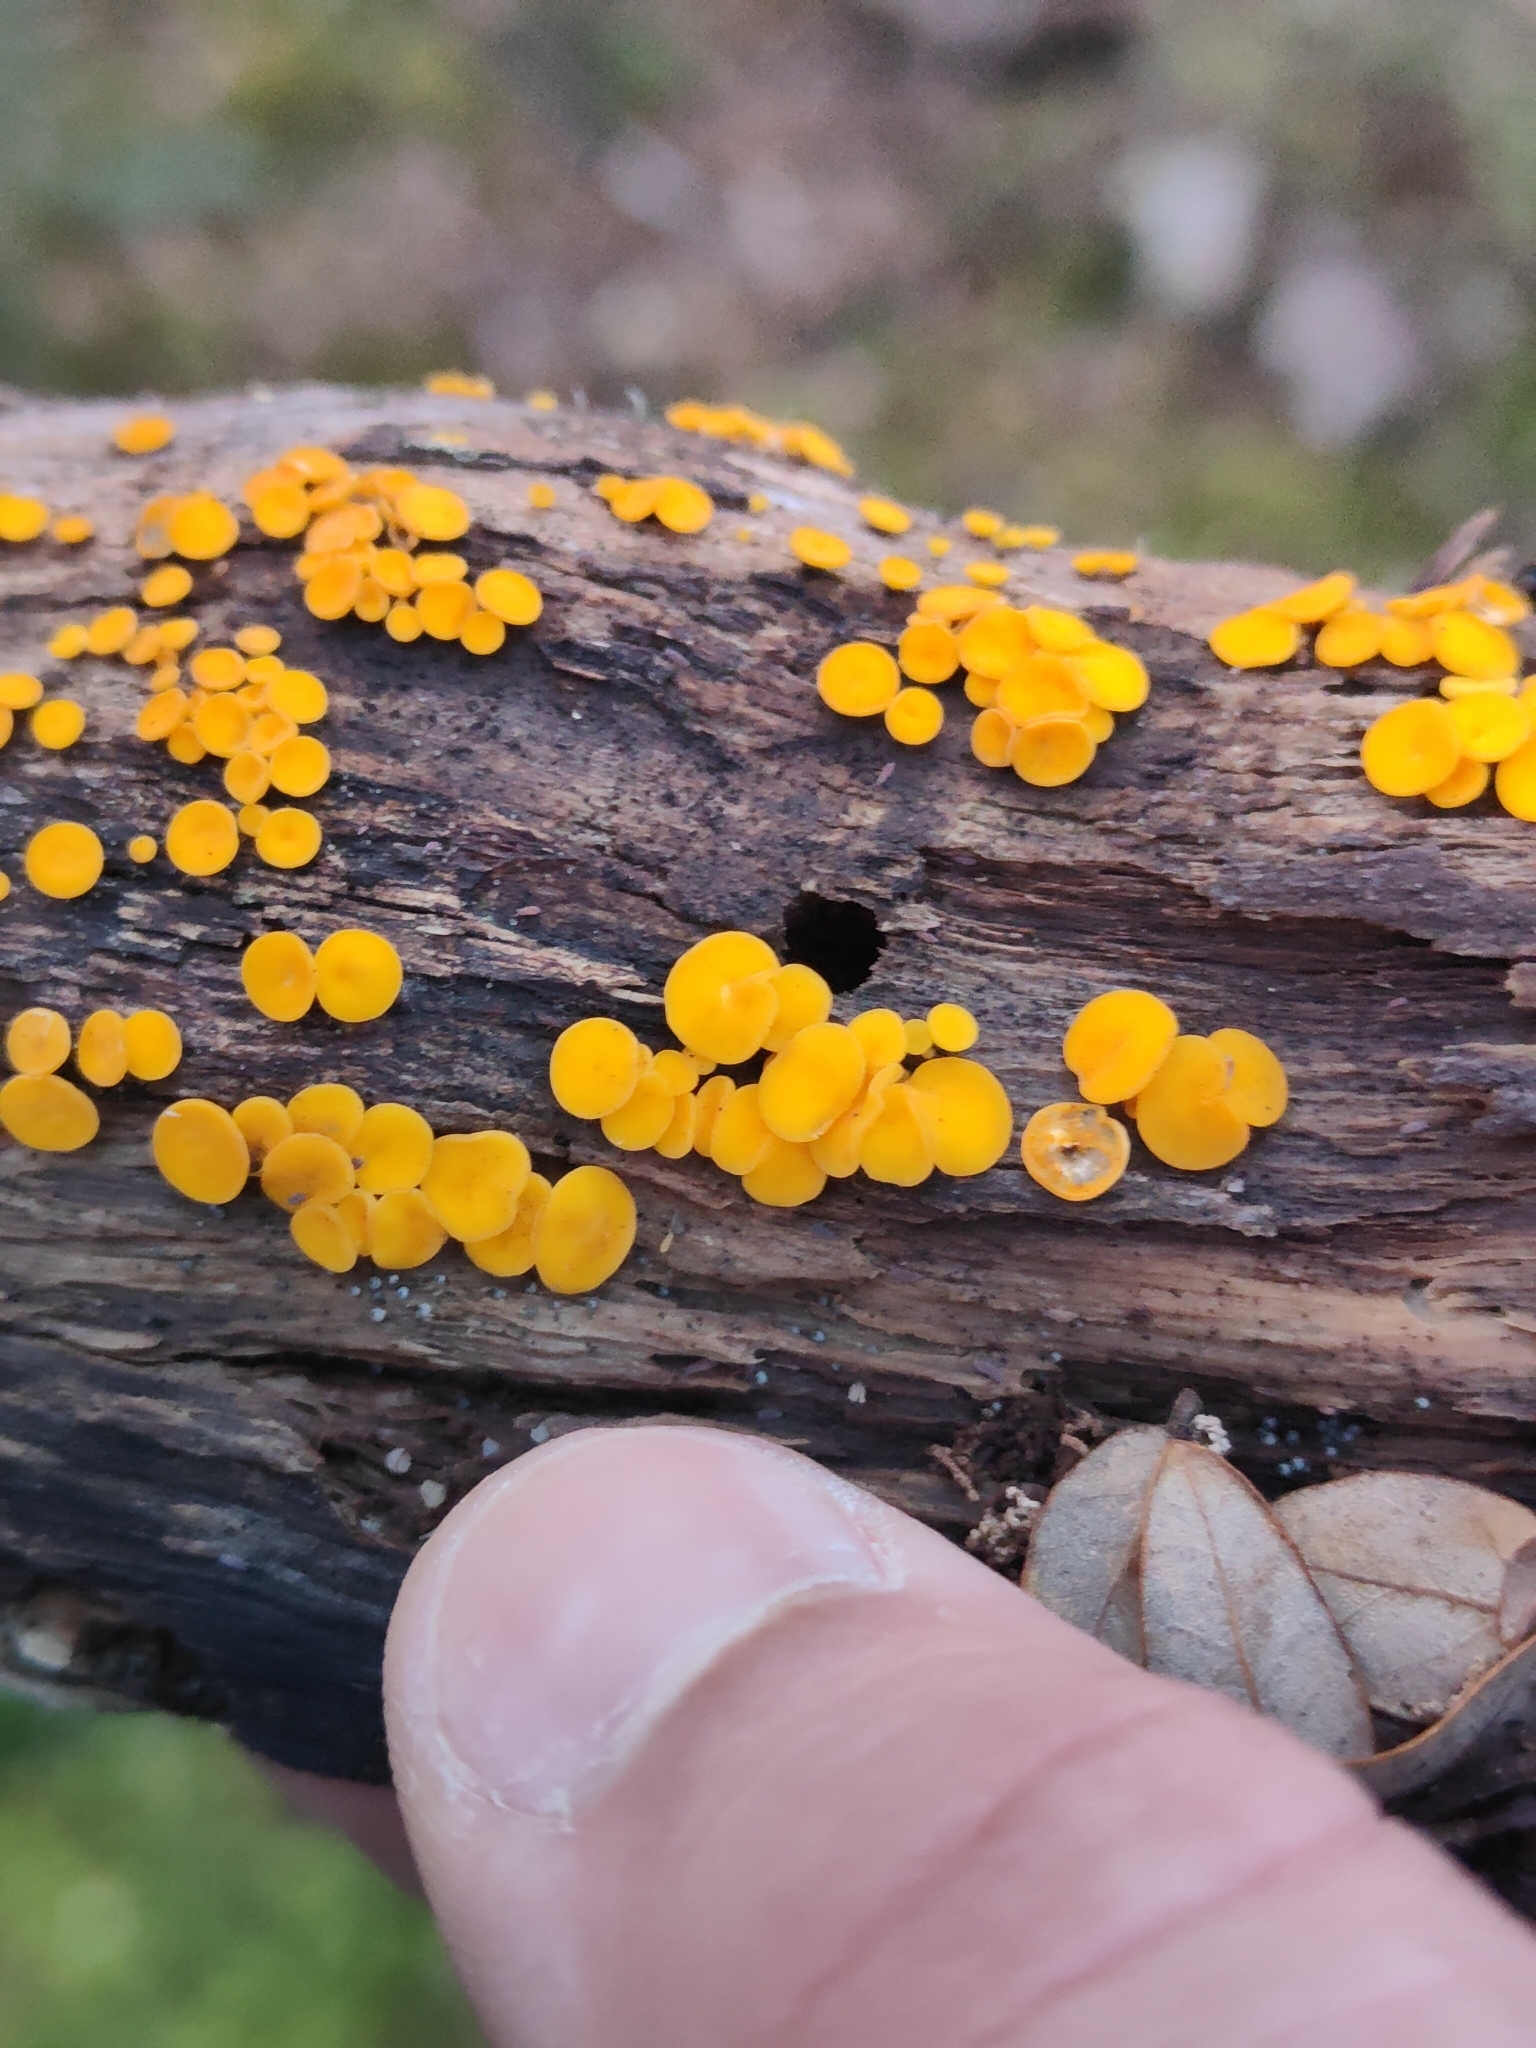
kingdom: Fungi
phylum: Ascomycota
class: Leotiomycetes
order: Helotiales
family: Pezizellaceae
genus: Calycina
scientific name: Calycina citrina
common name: Yellow fairy cups
